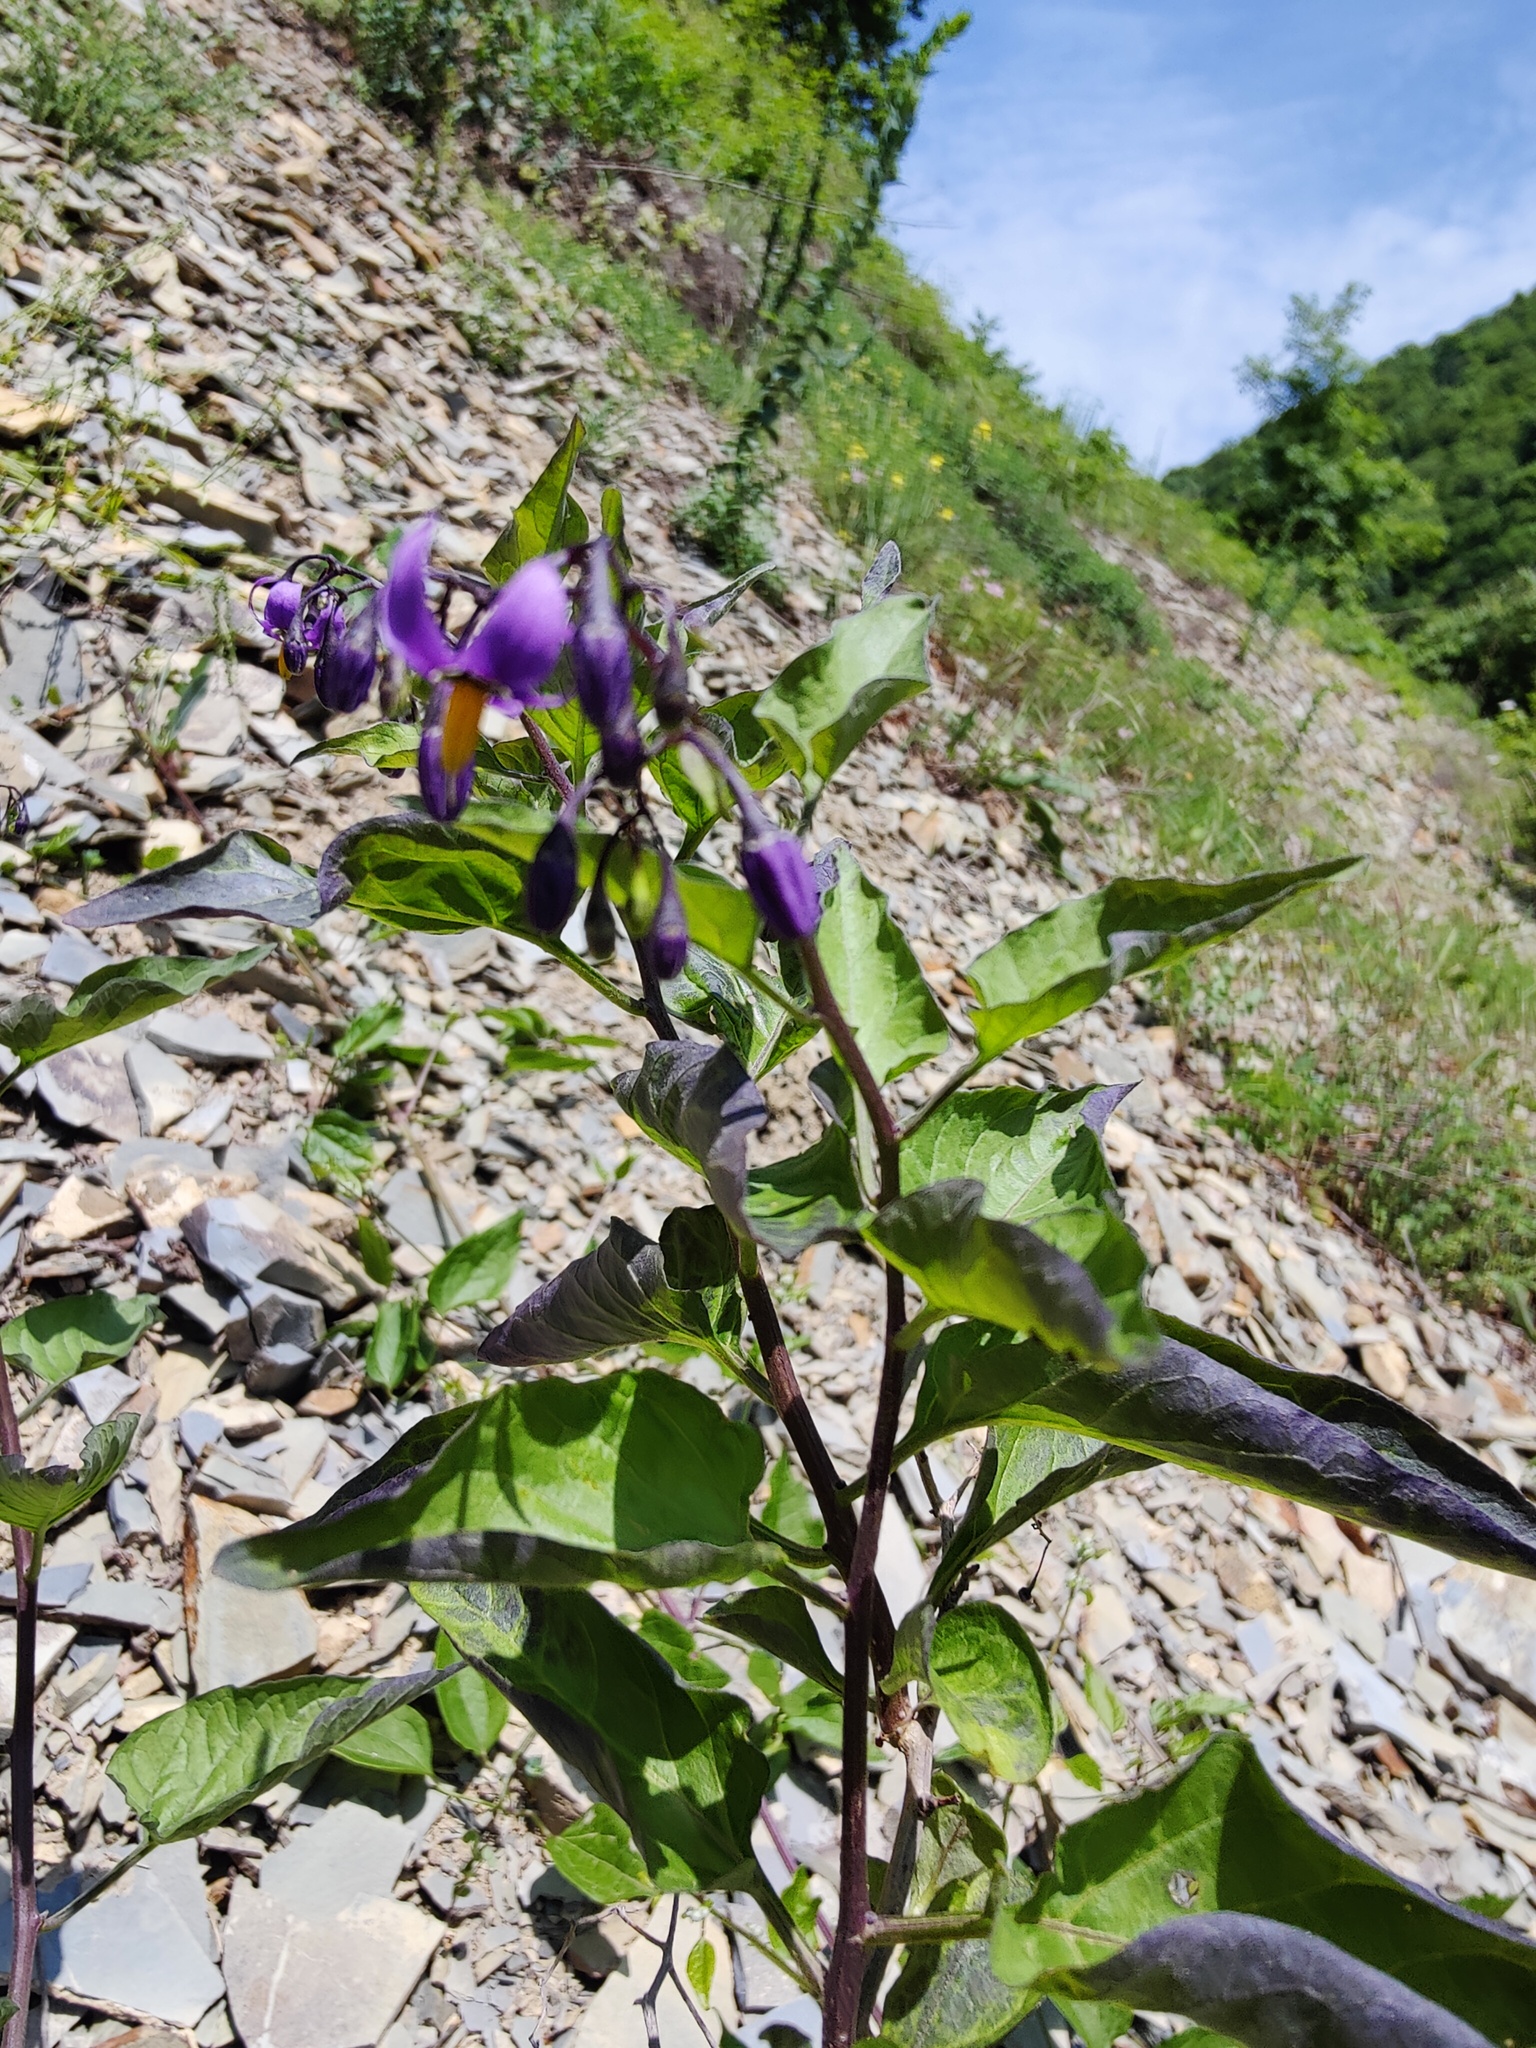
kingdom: Plantae
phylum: Tracheophyta
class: Magnoliopsida
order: Solanales
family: Solanaceae
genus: Solanum
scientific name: Solanum dulcamara
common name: Climbing nightshade
